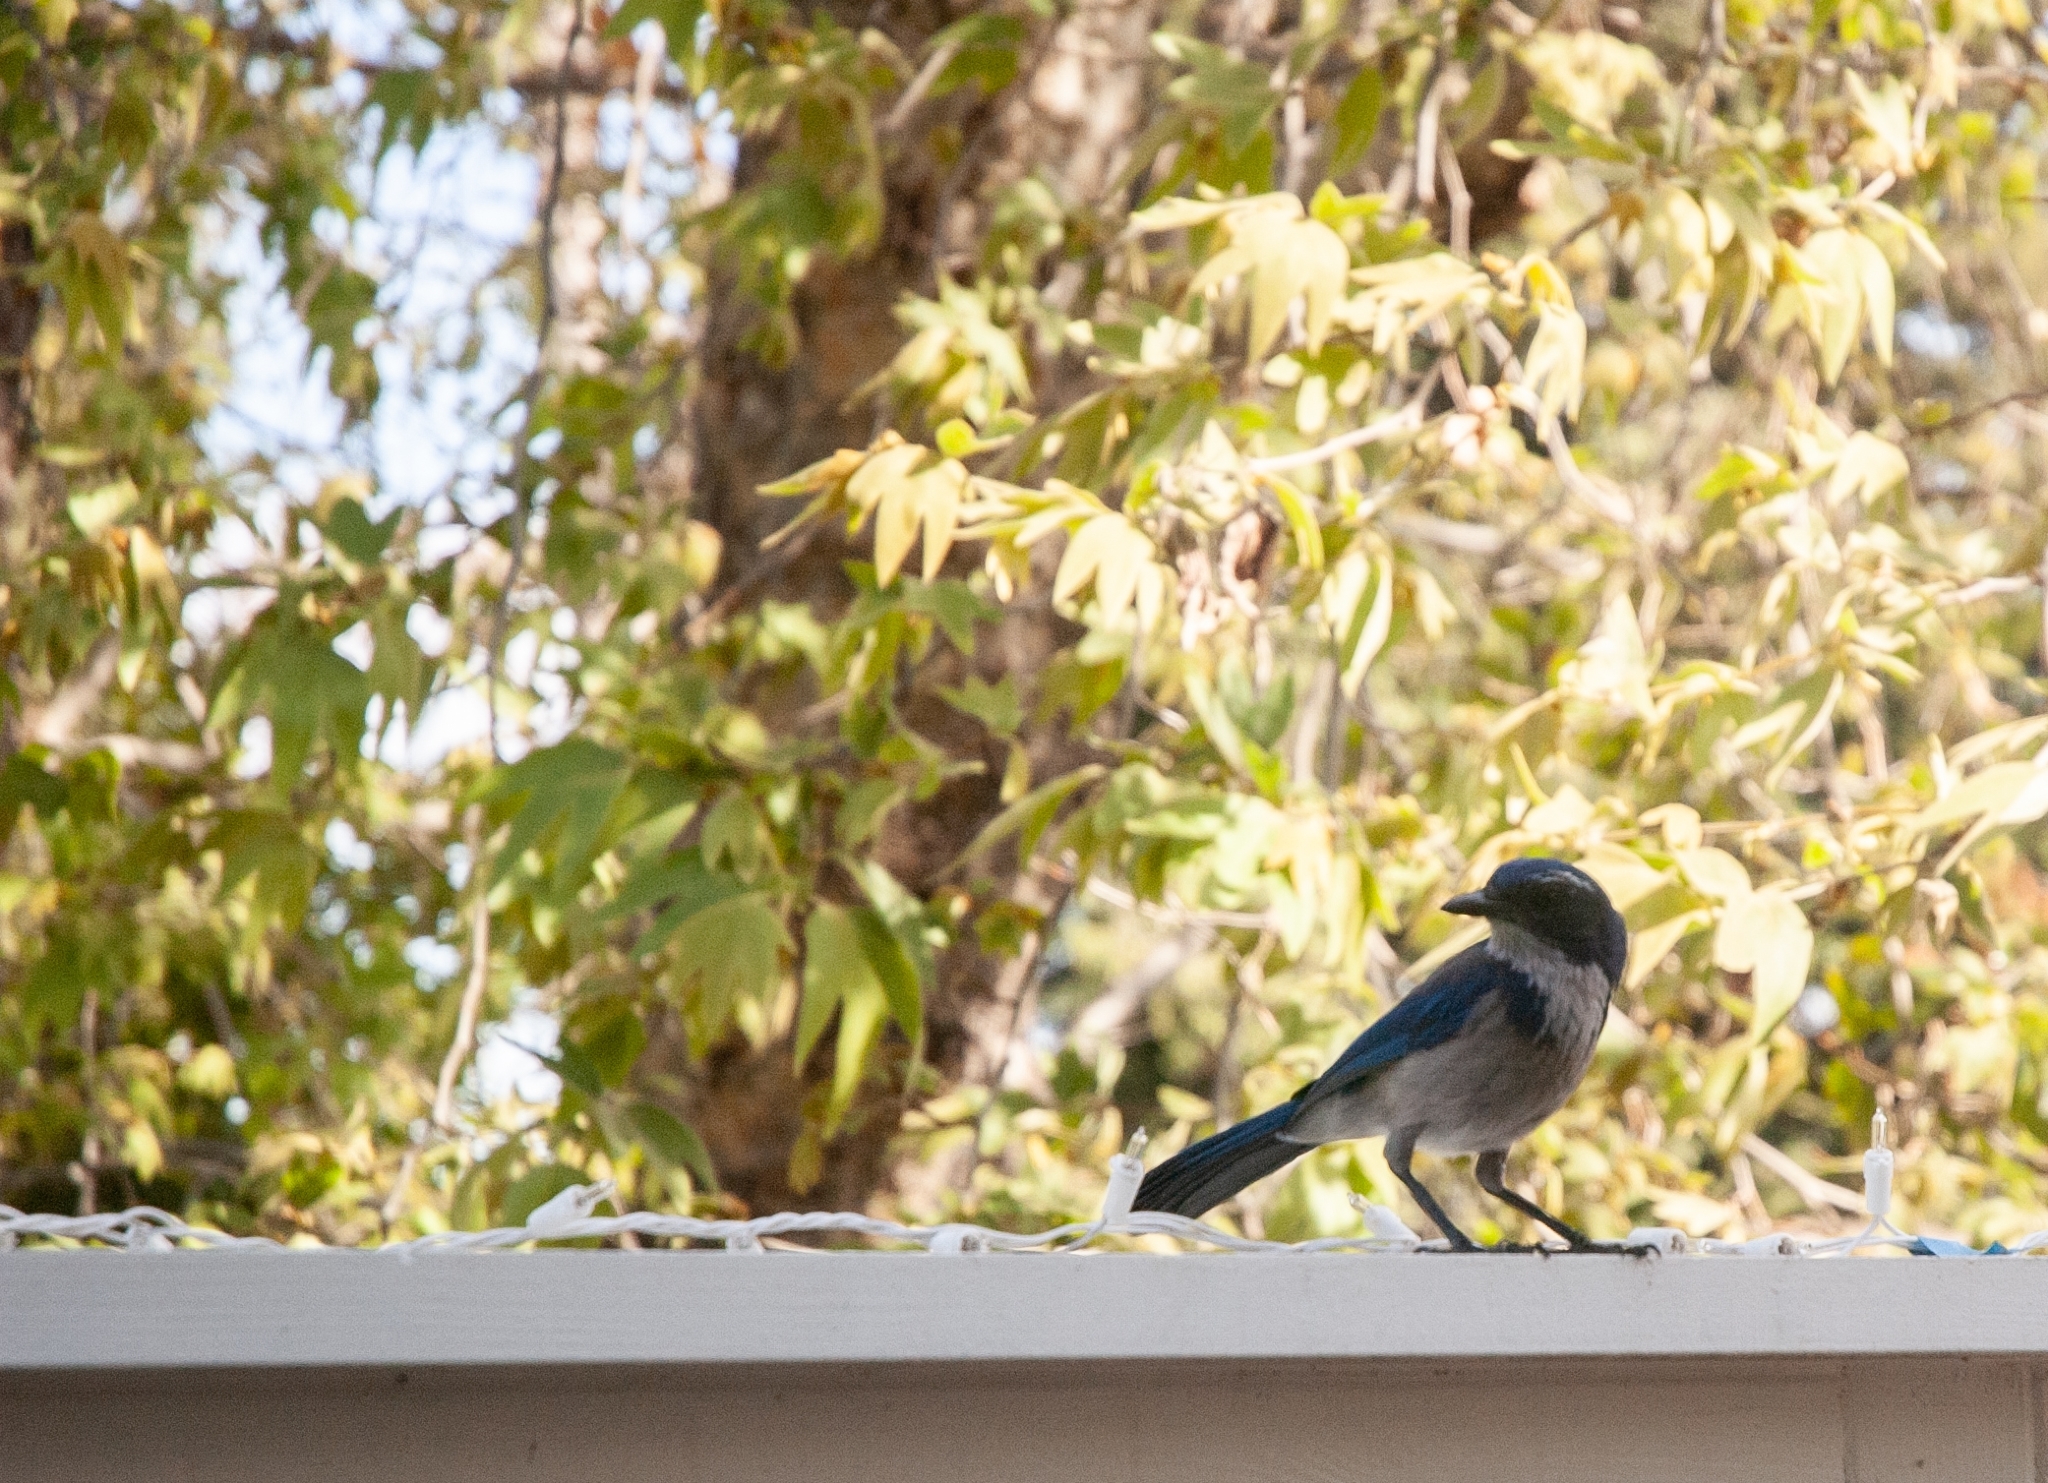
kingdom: Animalia
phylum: Chordata
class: Aves
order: Passeriformes
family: Corvidae
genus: Aphelocoma
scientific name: Aphelocoma californica
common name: California scrub-jay
